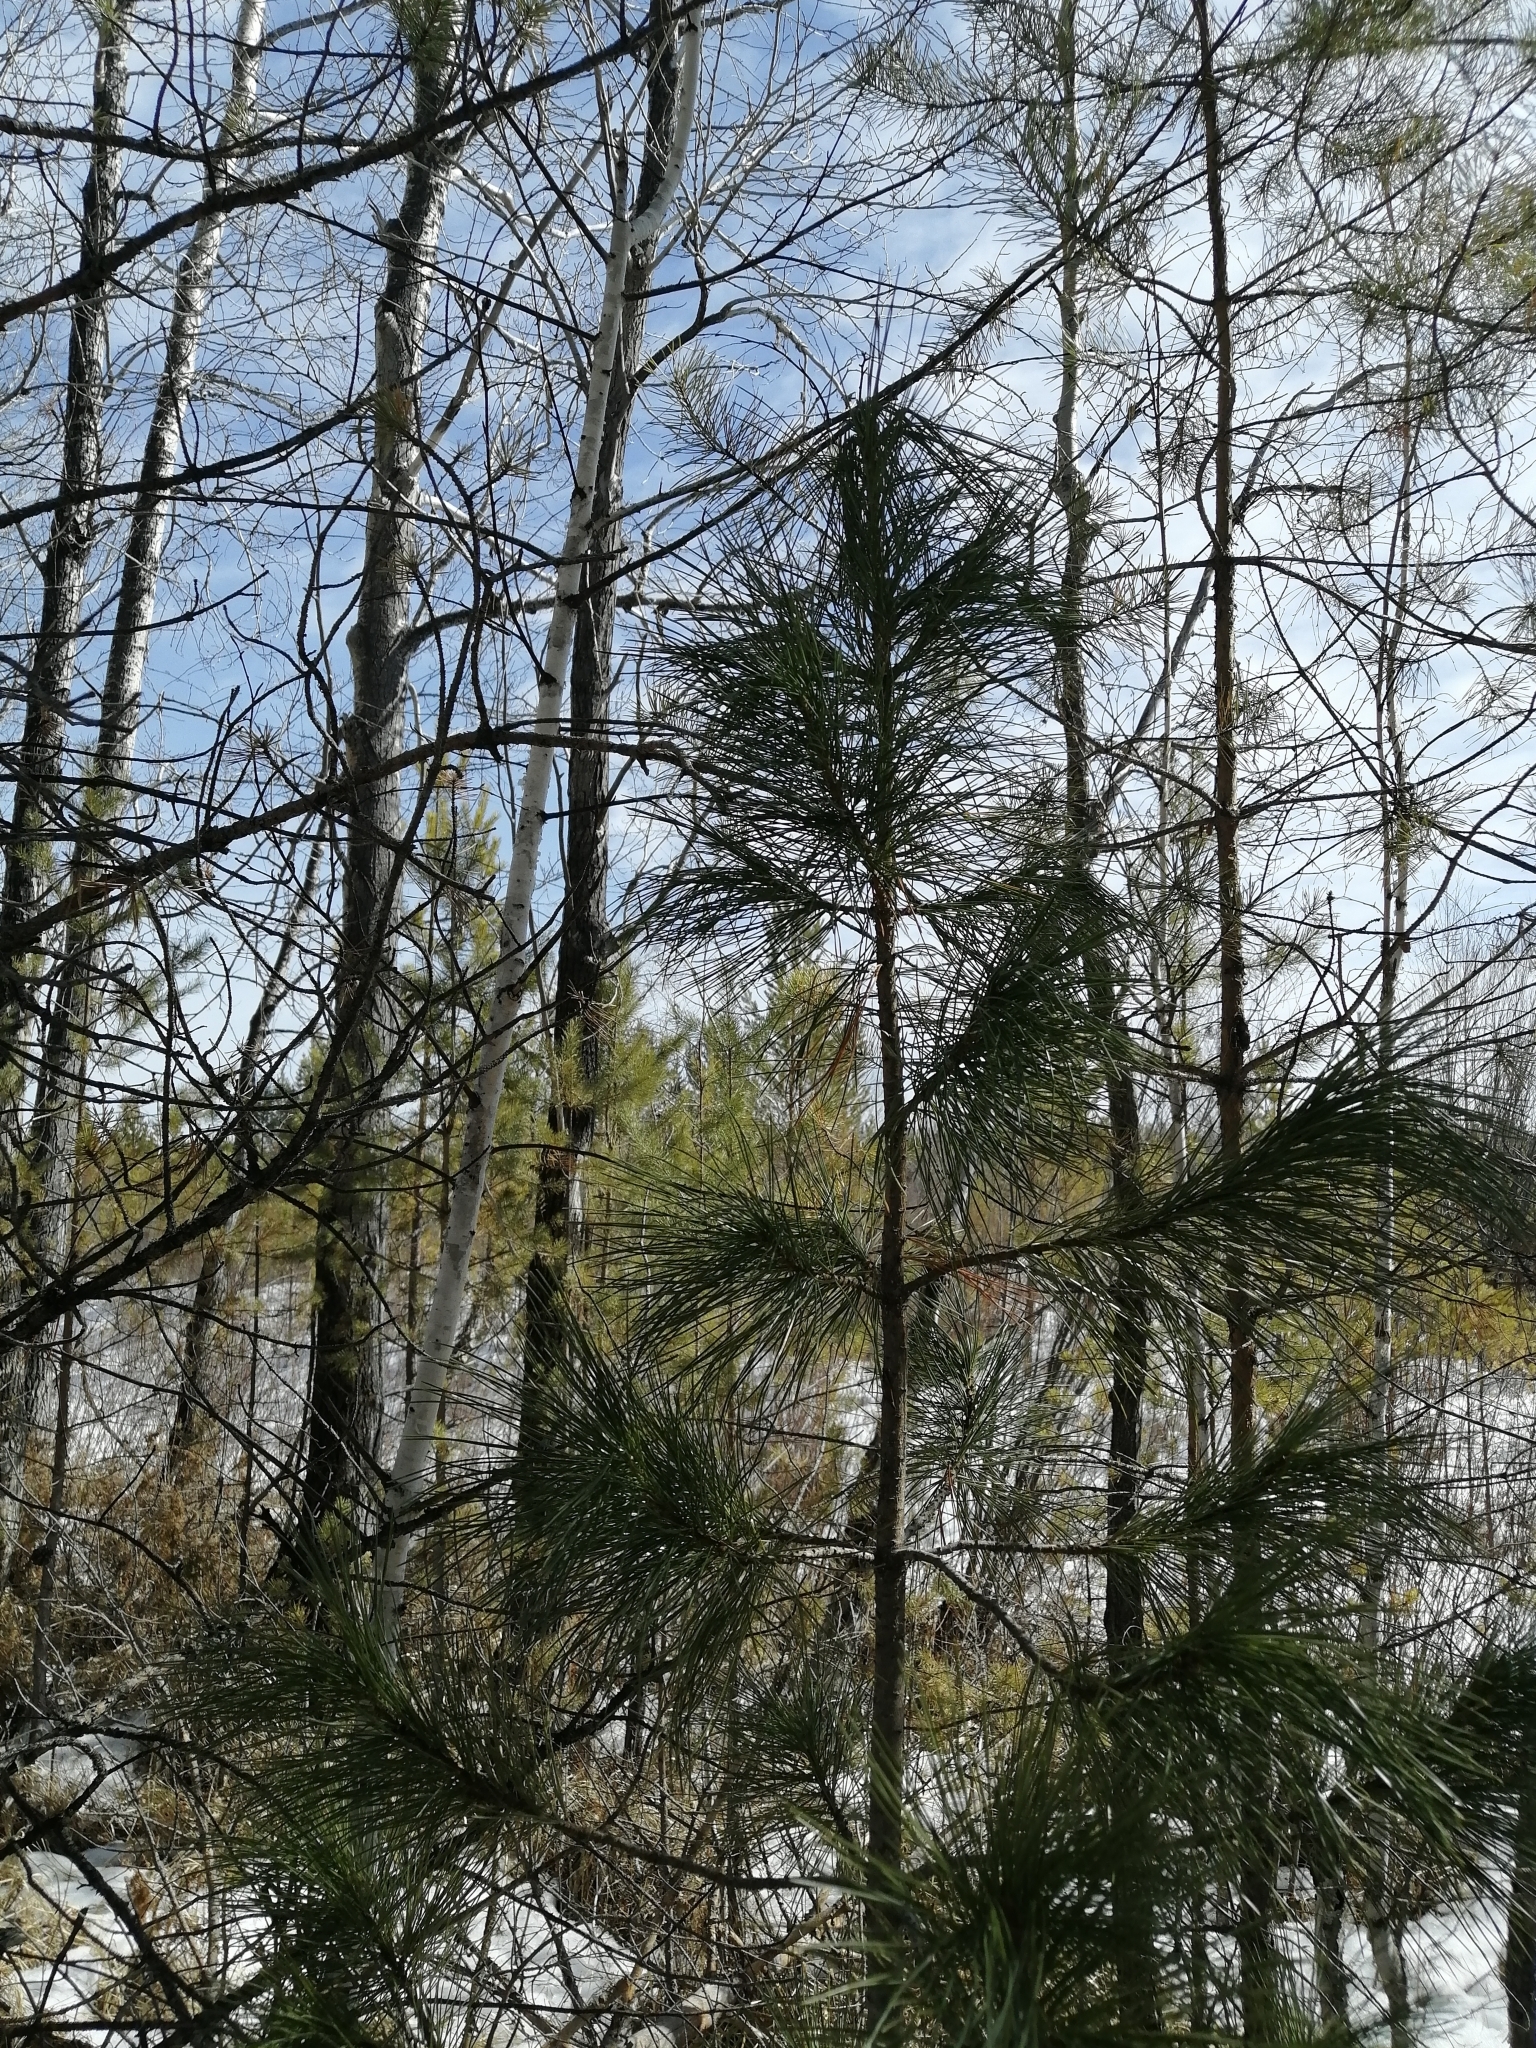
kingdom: Plantae
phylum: Tracheophyta
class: Pinopsida
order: Pinales
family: Pinaceae
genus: Pinus
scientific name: Pinus sibirica
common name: Siberian pine
